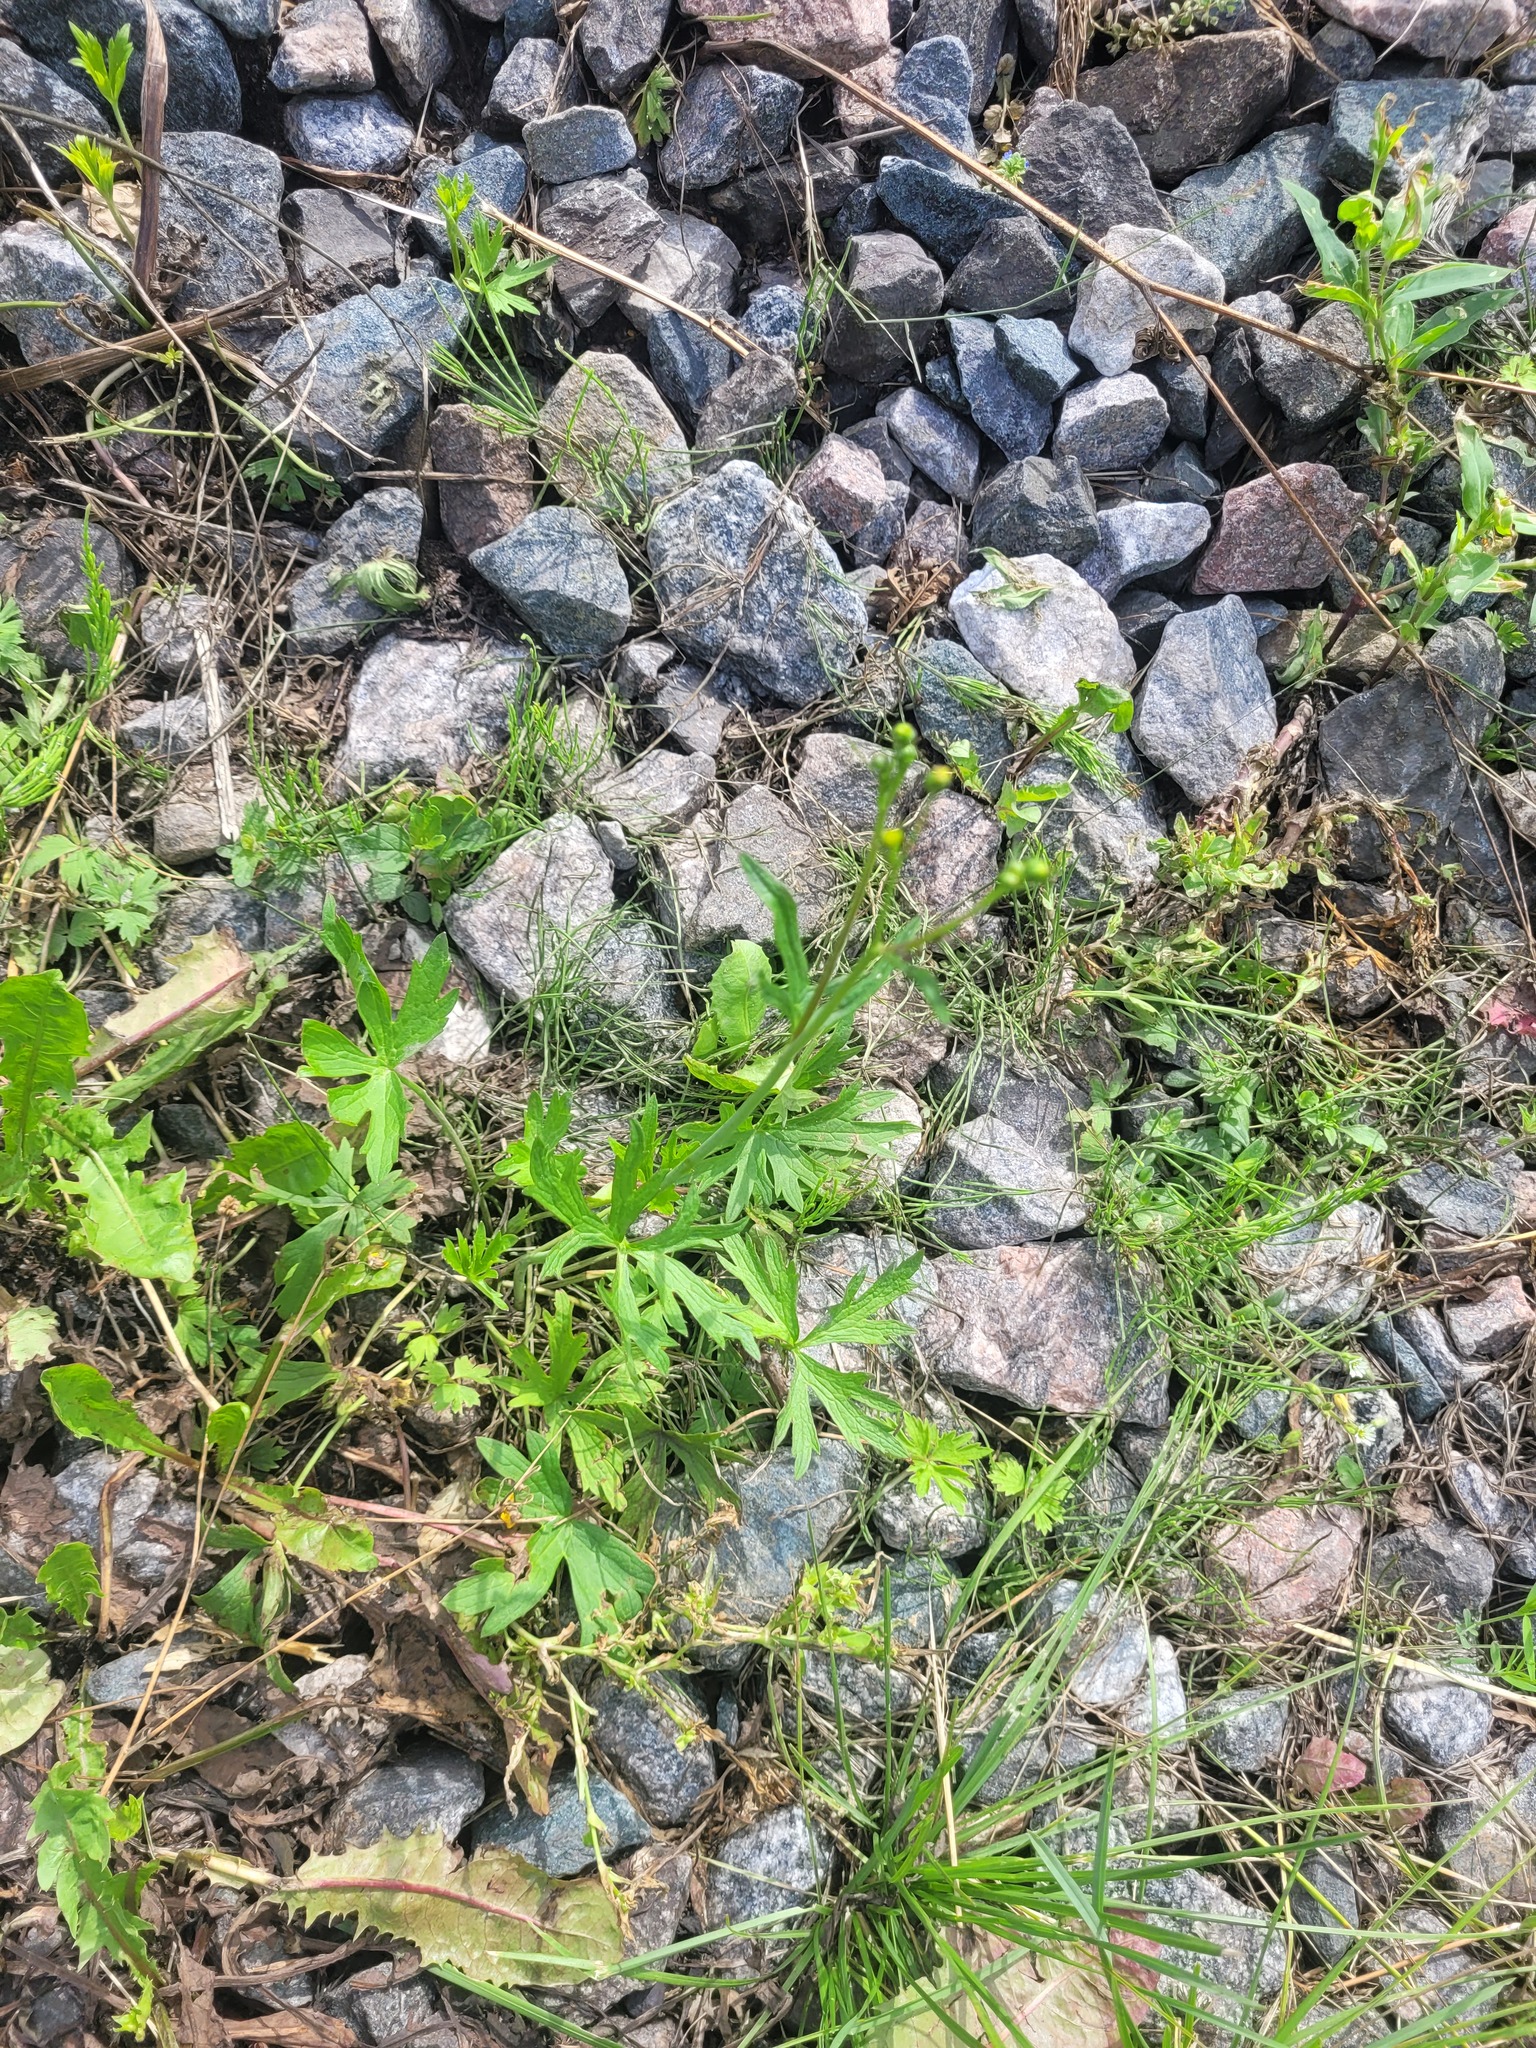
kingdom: Plantae
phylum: Tracheophyta
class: Magnoliopsida
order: Ranunculales
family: Ranunculaceae
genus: Ranunculus
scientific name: Ranunculus acris
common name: Meadow buttercup
